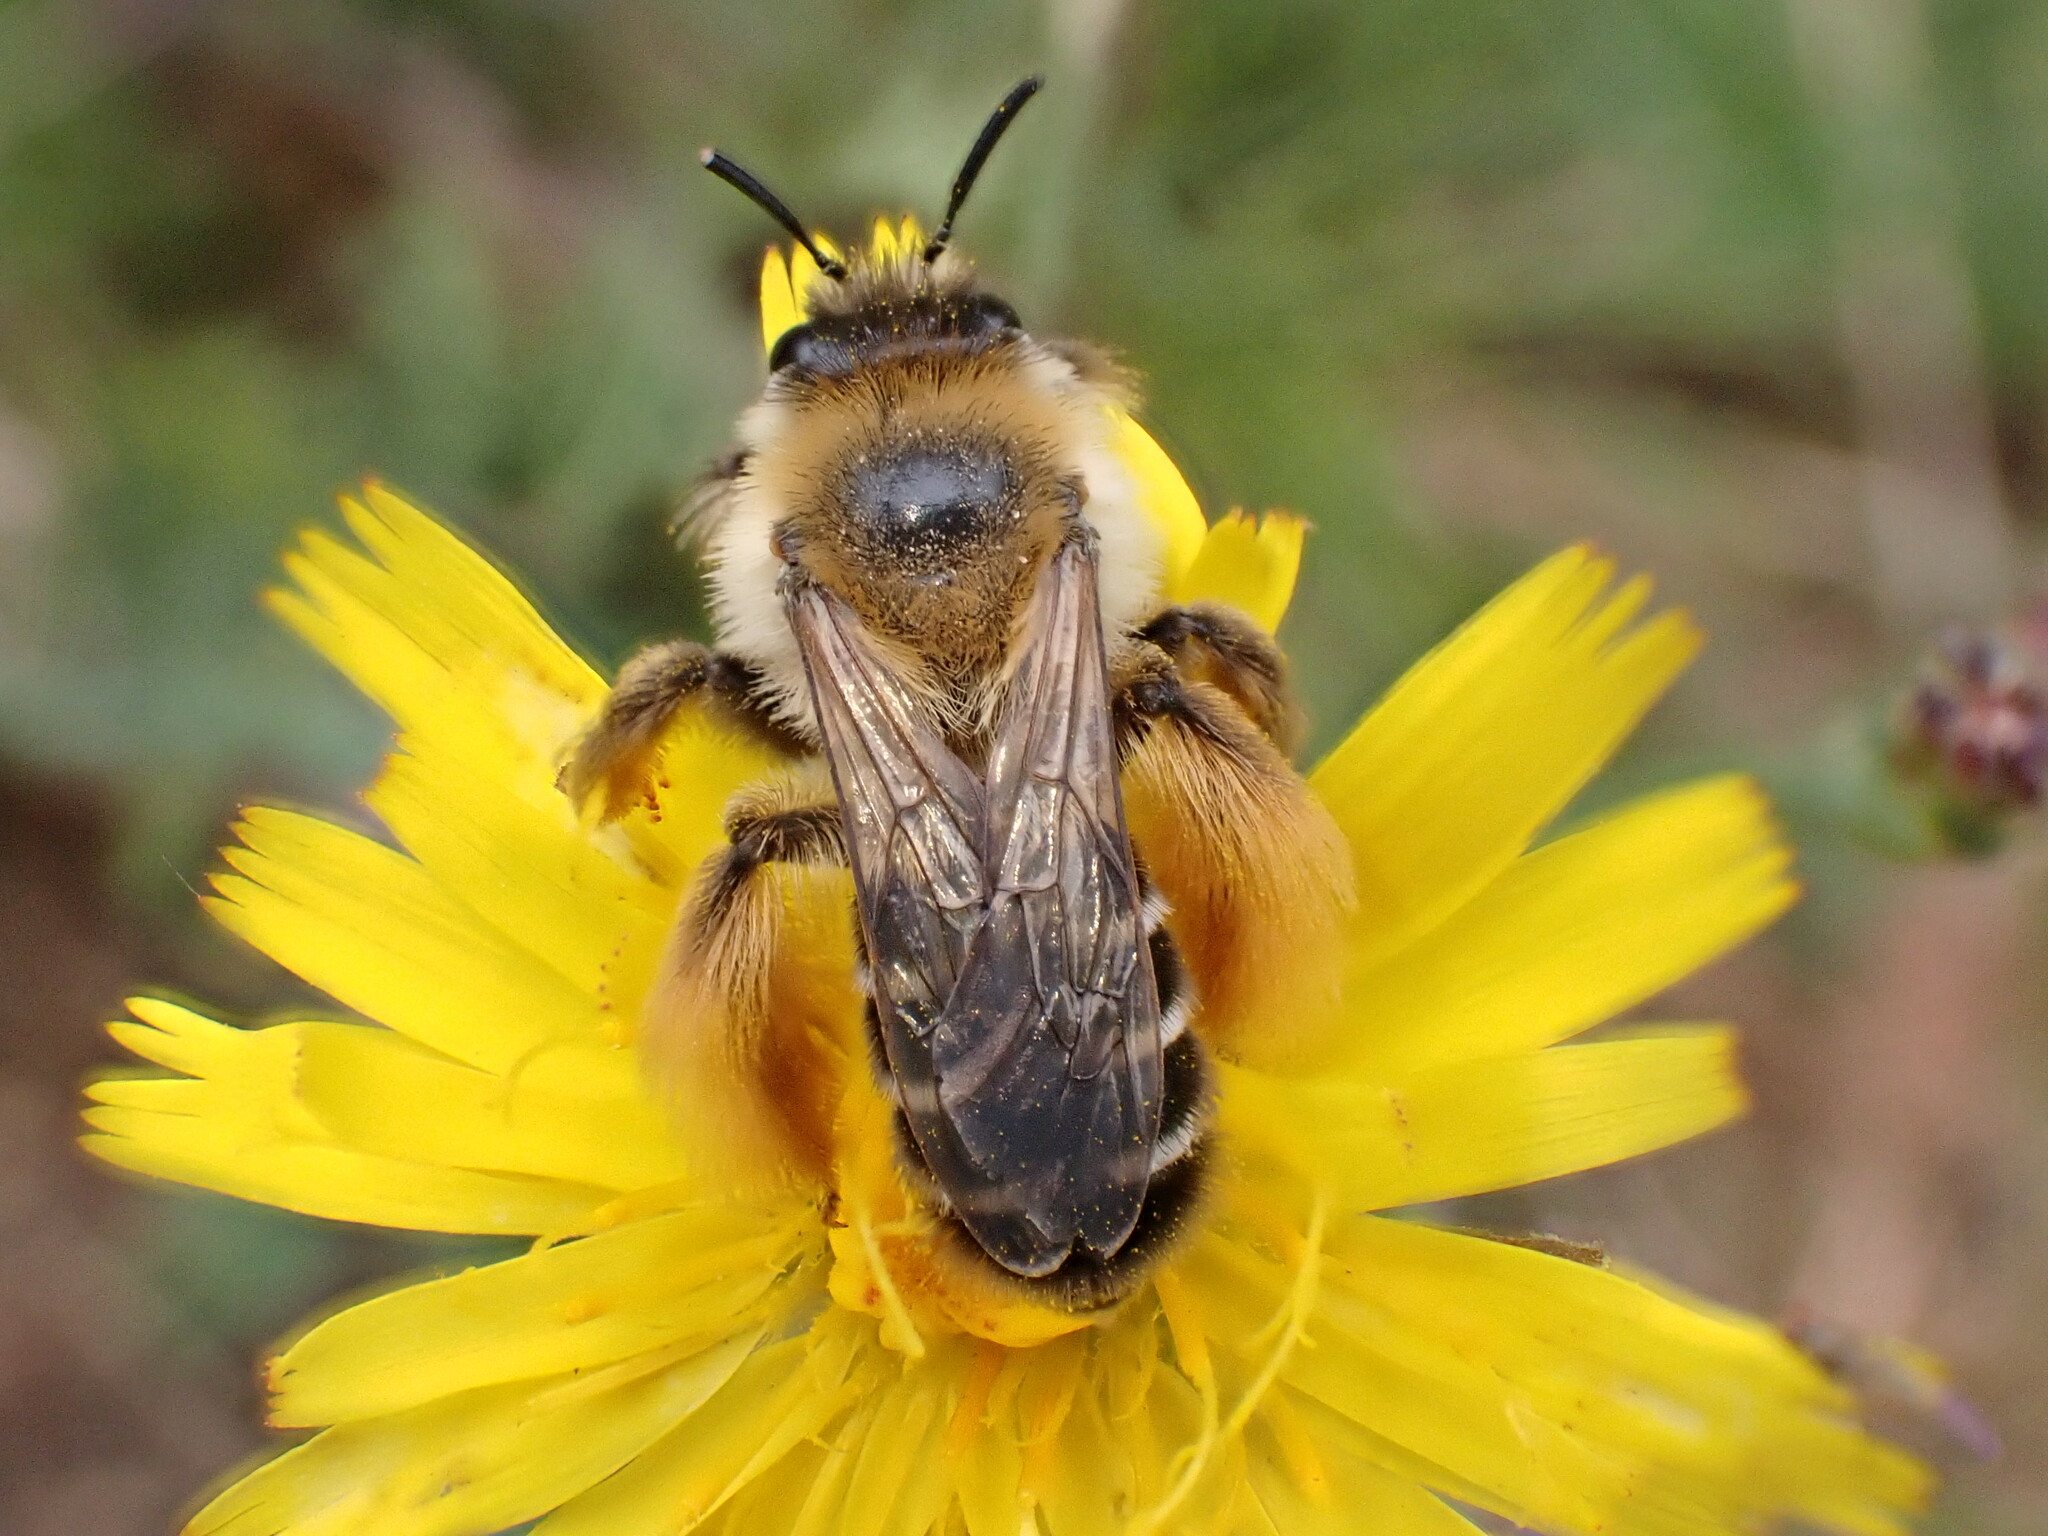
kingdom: Animalia
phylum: Arthropoda
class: Insecta
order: Hymenoptera
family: Melittidae
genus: Dasypoda
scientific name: Dasypoda hirtipes
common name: Pantaloon bee
